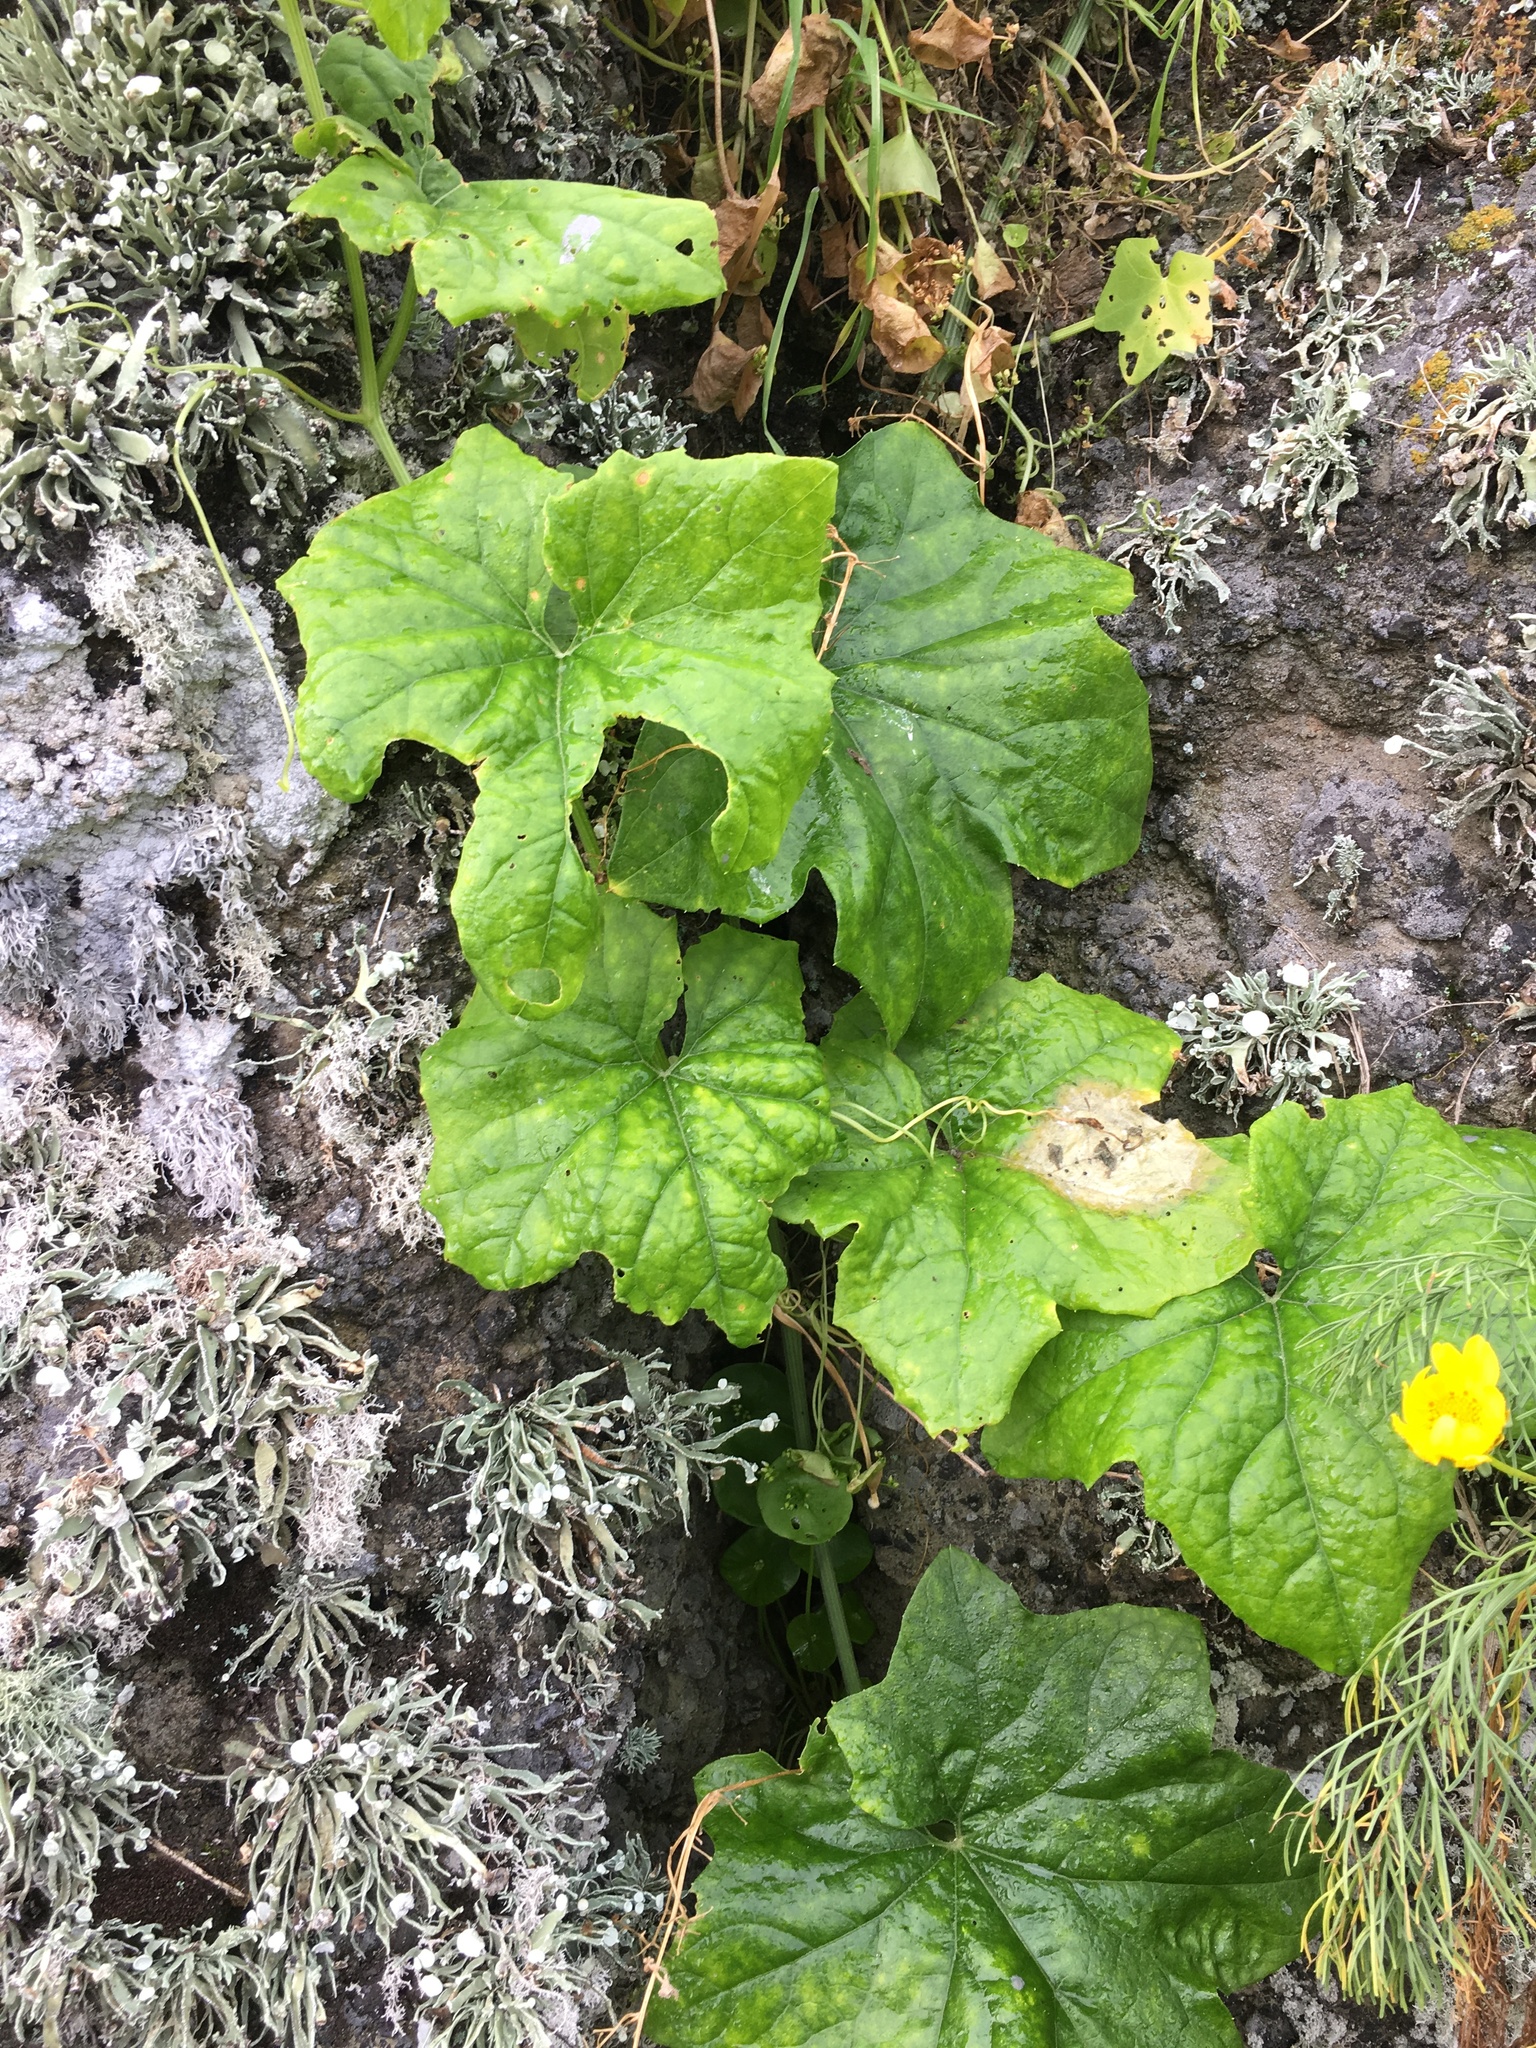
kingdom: Plantae
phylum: Tracheophyta
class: Magnoliopsida
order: Cucurbitales
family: Cucurbitaceae
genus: Marah
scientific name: Marah macrocarpa
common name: Cucamonga manroot
